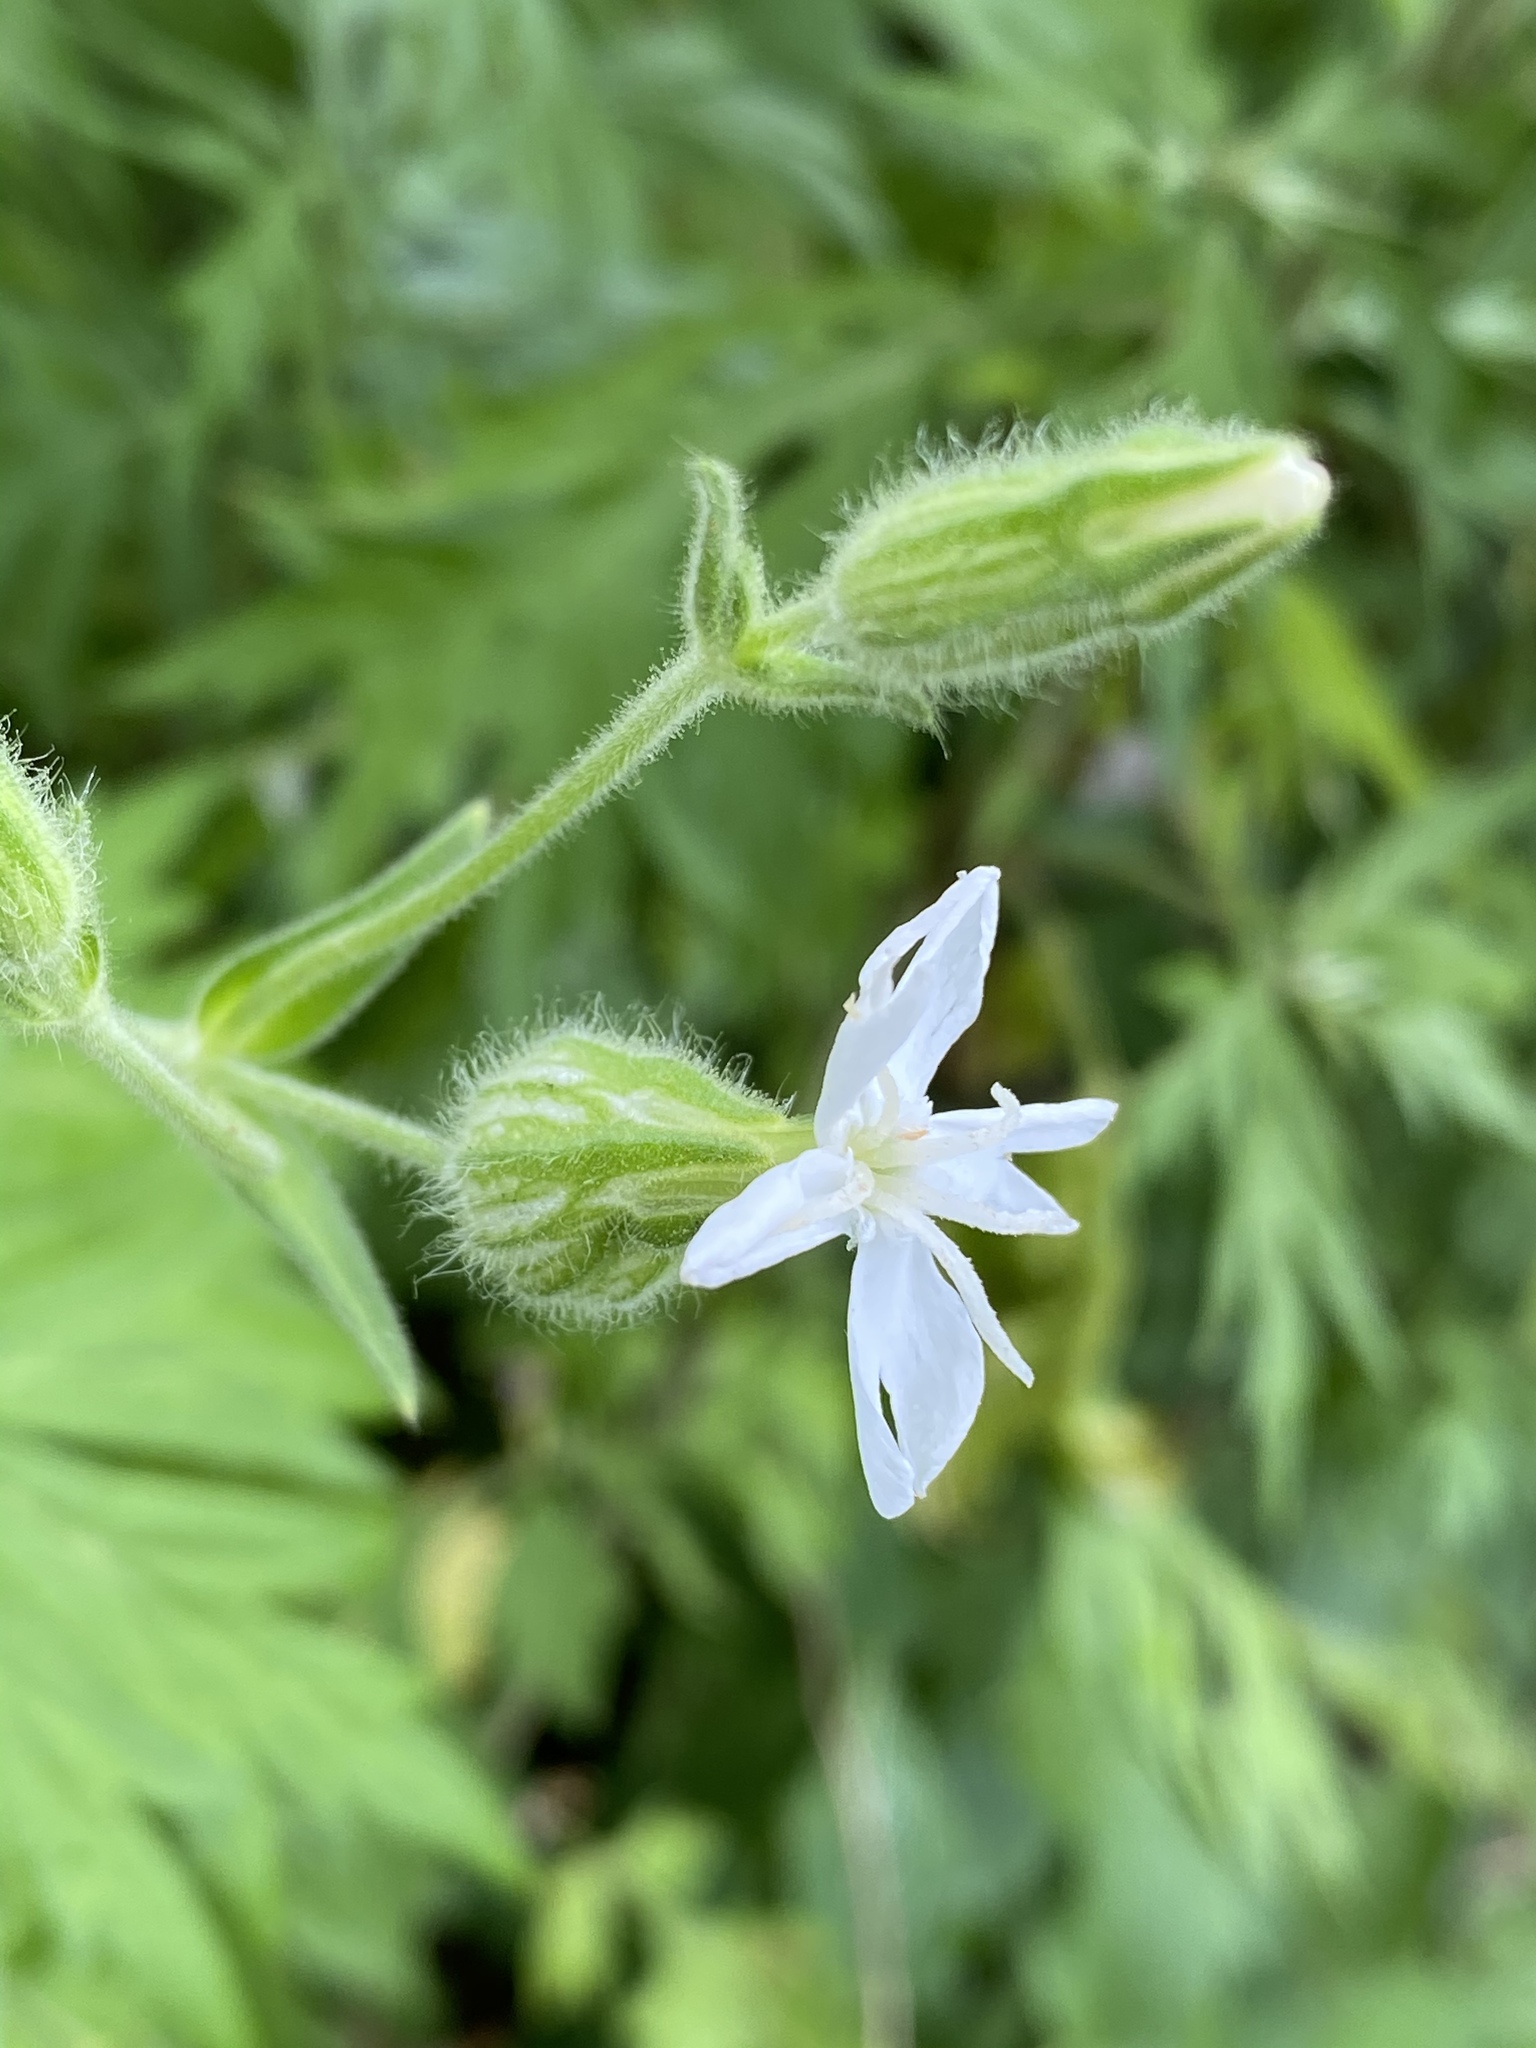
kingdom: Plantae
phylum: Tracheophyta
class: Magnoliopsida
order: Caryophyllales
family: Caryophyllaceae
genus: Silene
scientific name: Silene latifolia
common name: White campion
